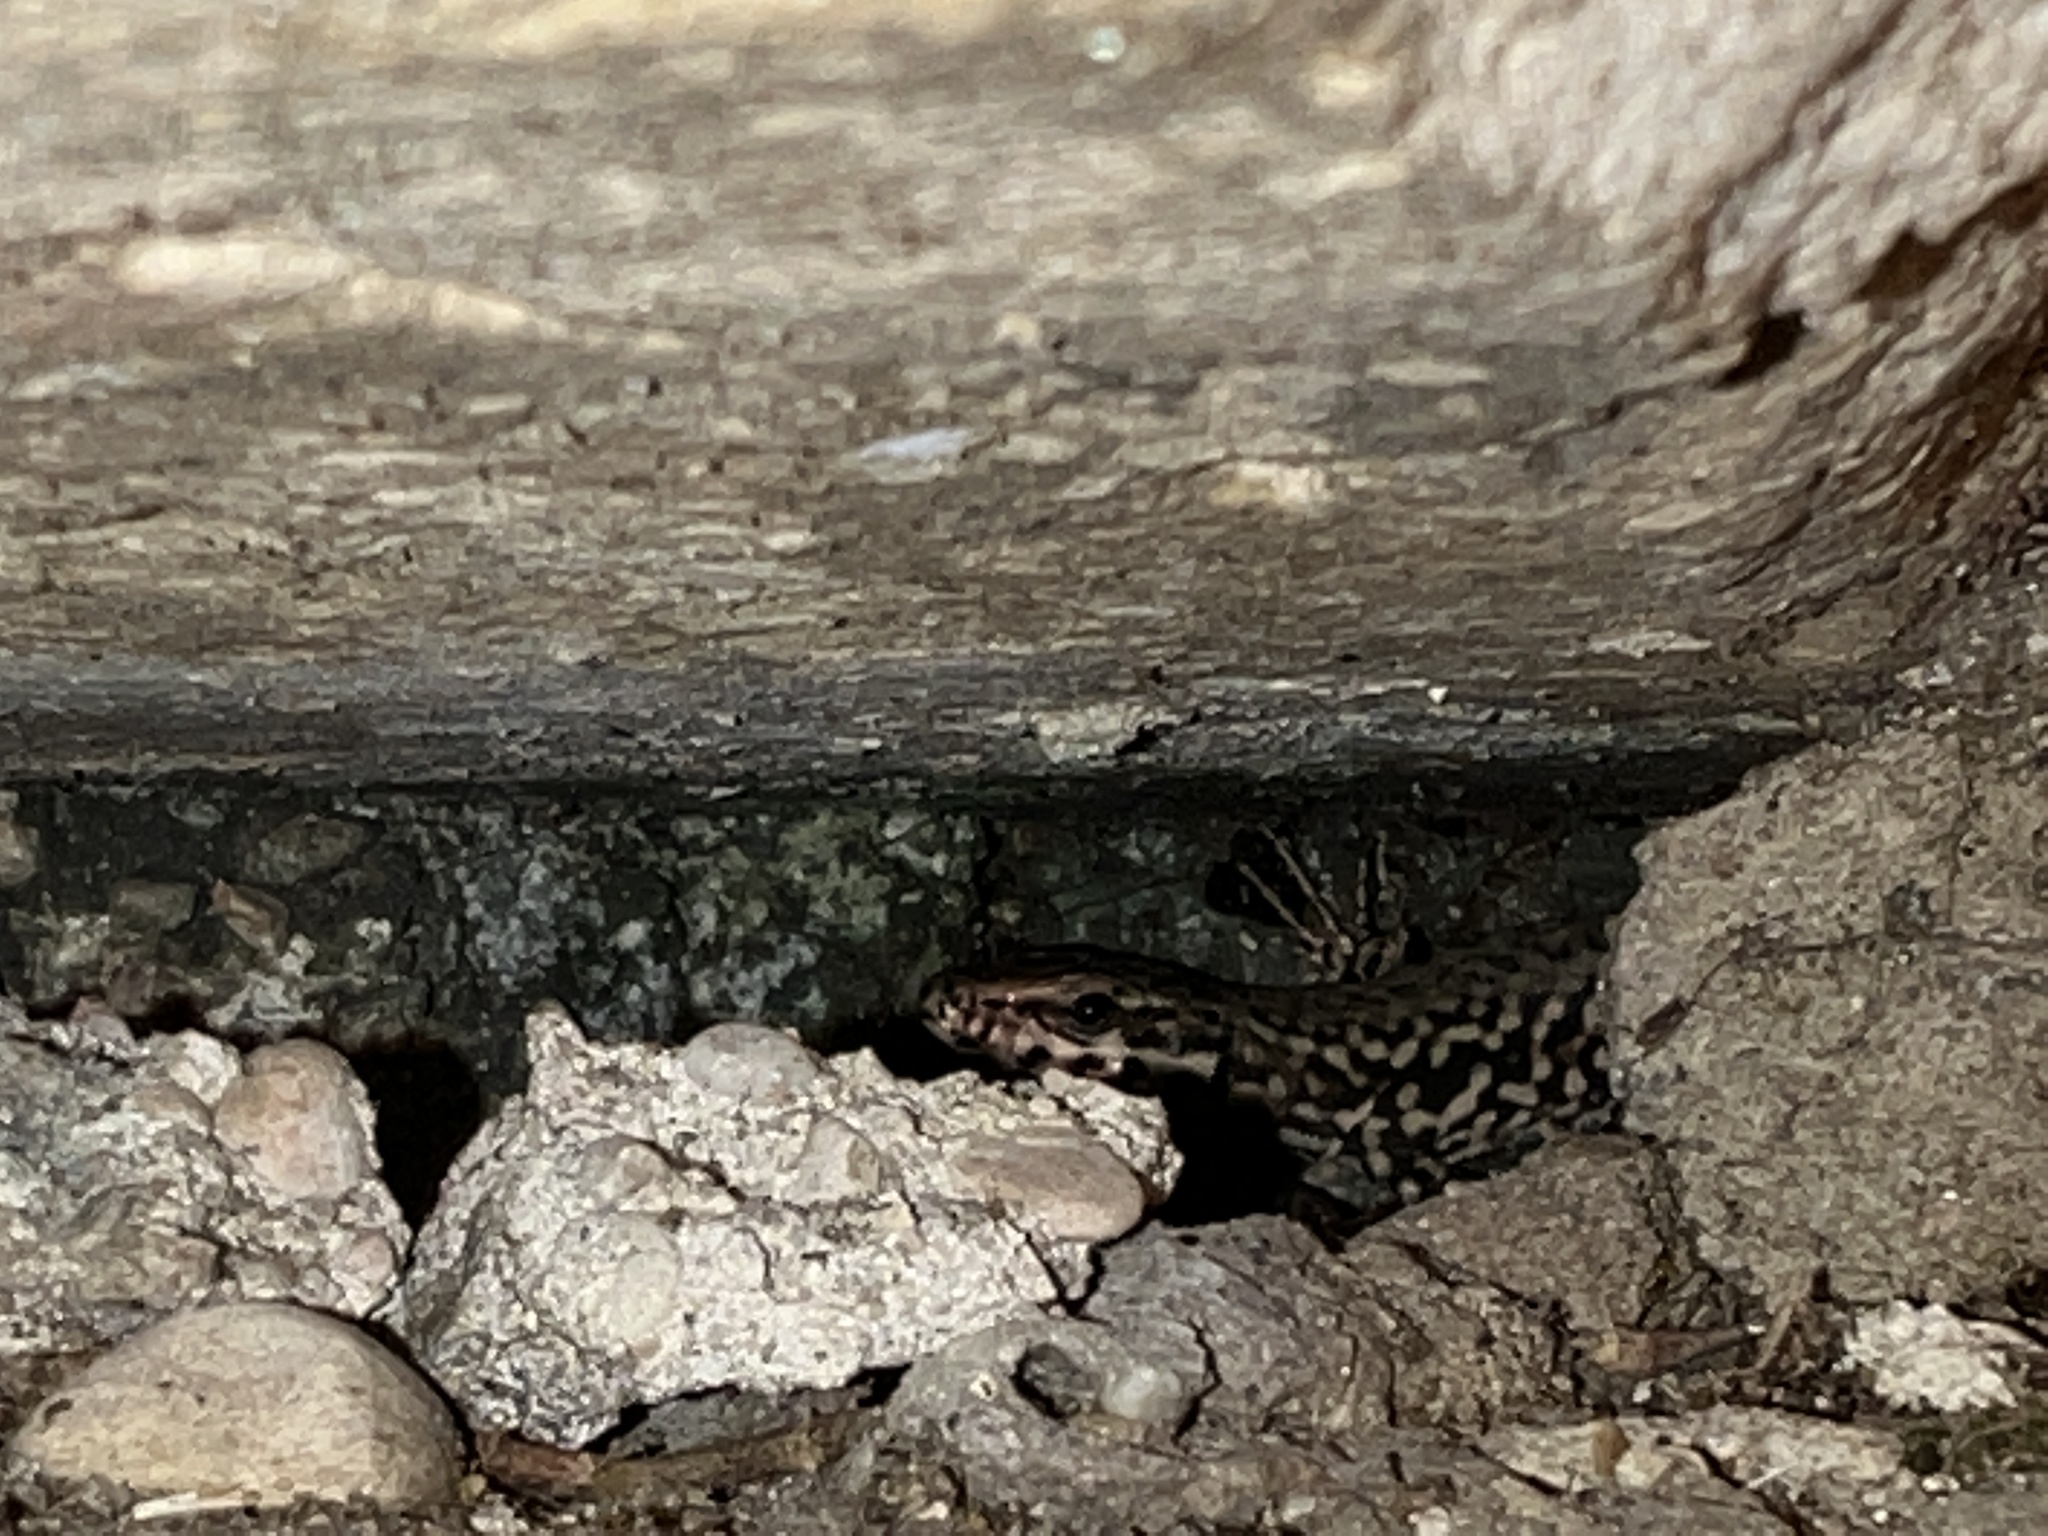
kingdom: Animalia
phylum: Chordata
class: Squamata
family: Lacertidae
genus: Podarcis
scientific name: Podarcis muralis
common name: Common wall lizard
